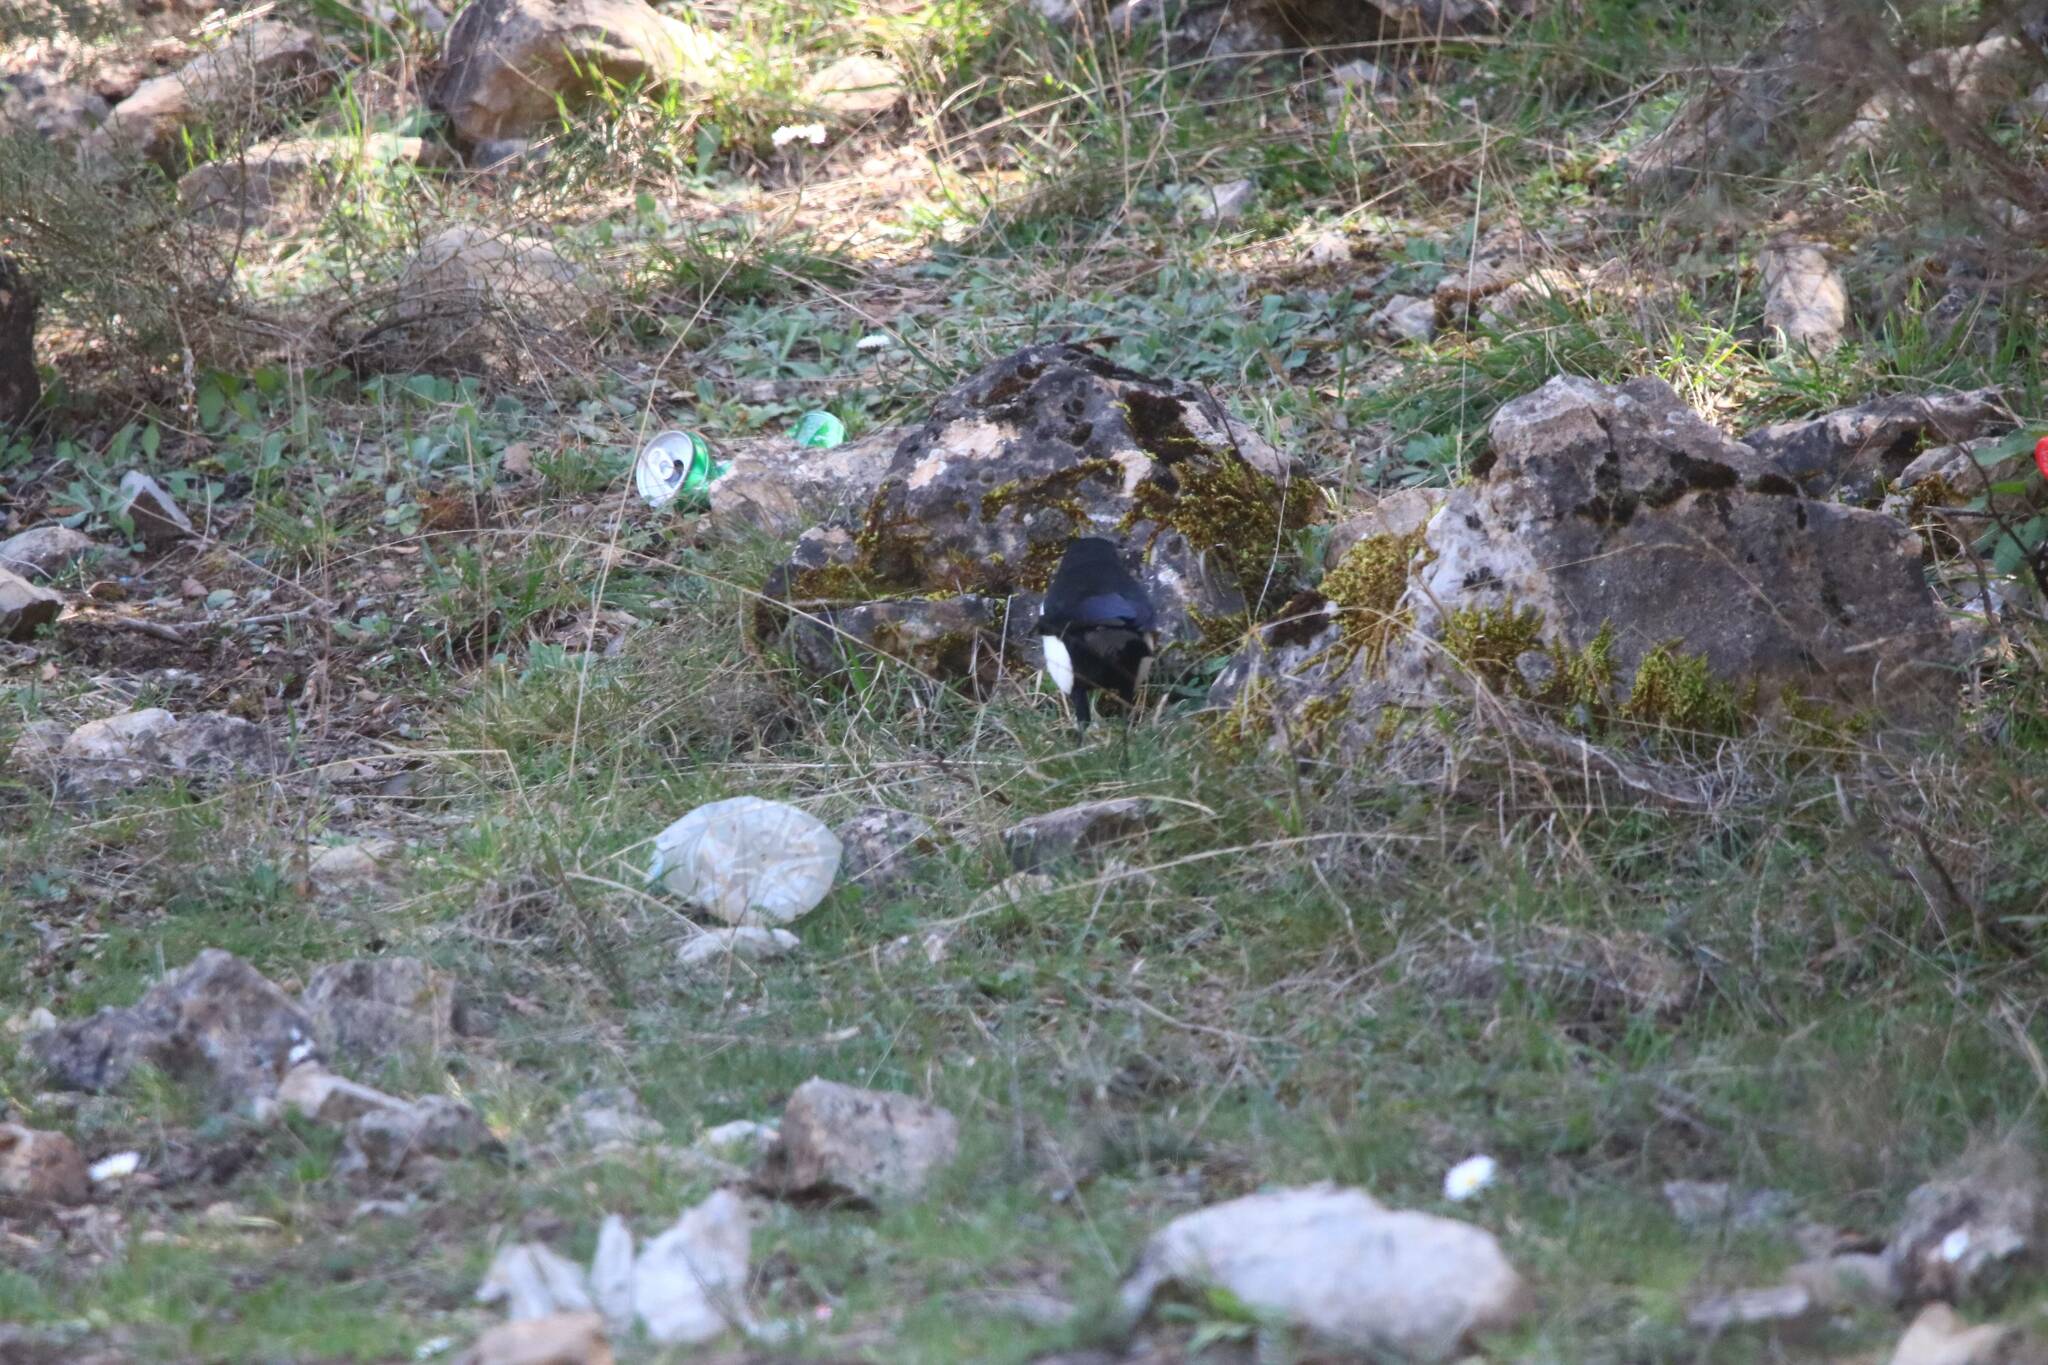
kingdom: Animalia
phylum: Chordata
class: Aves
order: Passeriformes
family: Corvidae
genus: Pica
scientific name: Pica mauritanica
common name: Maghreb magpie
